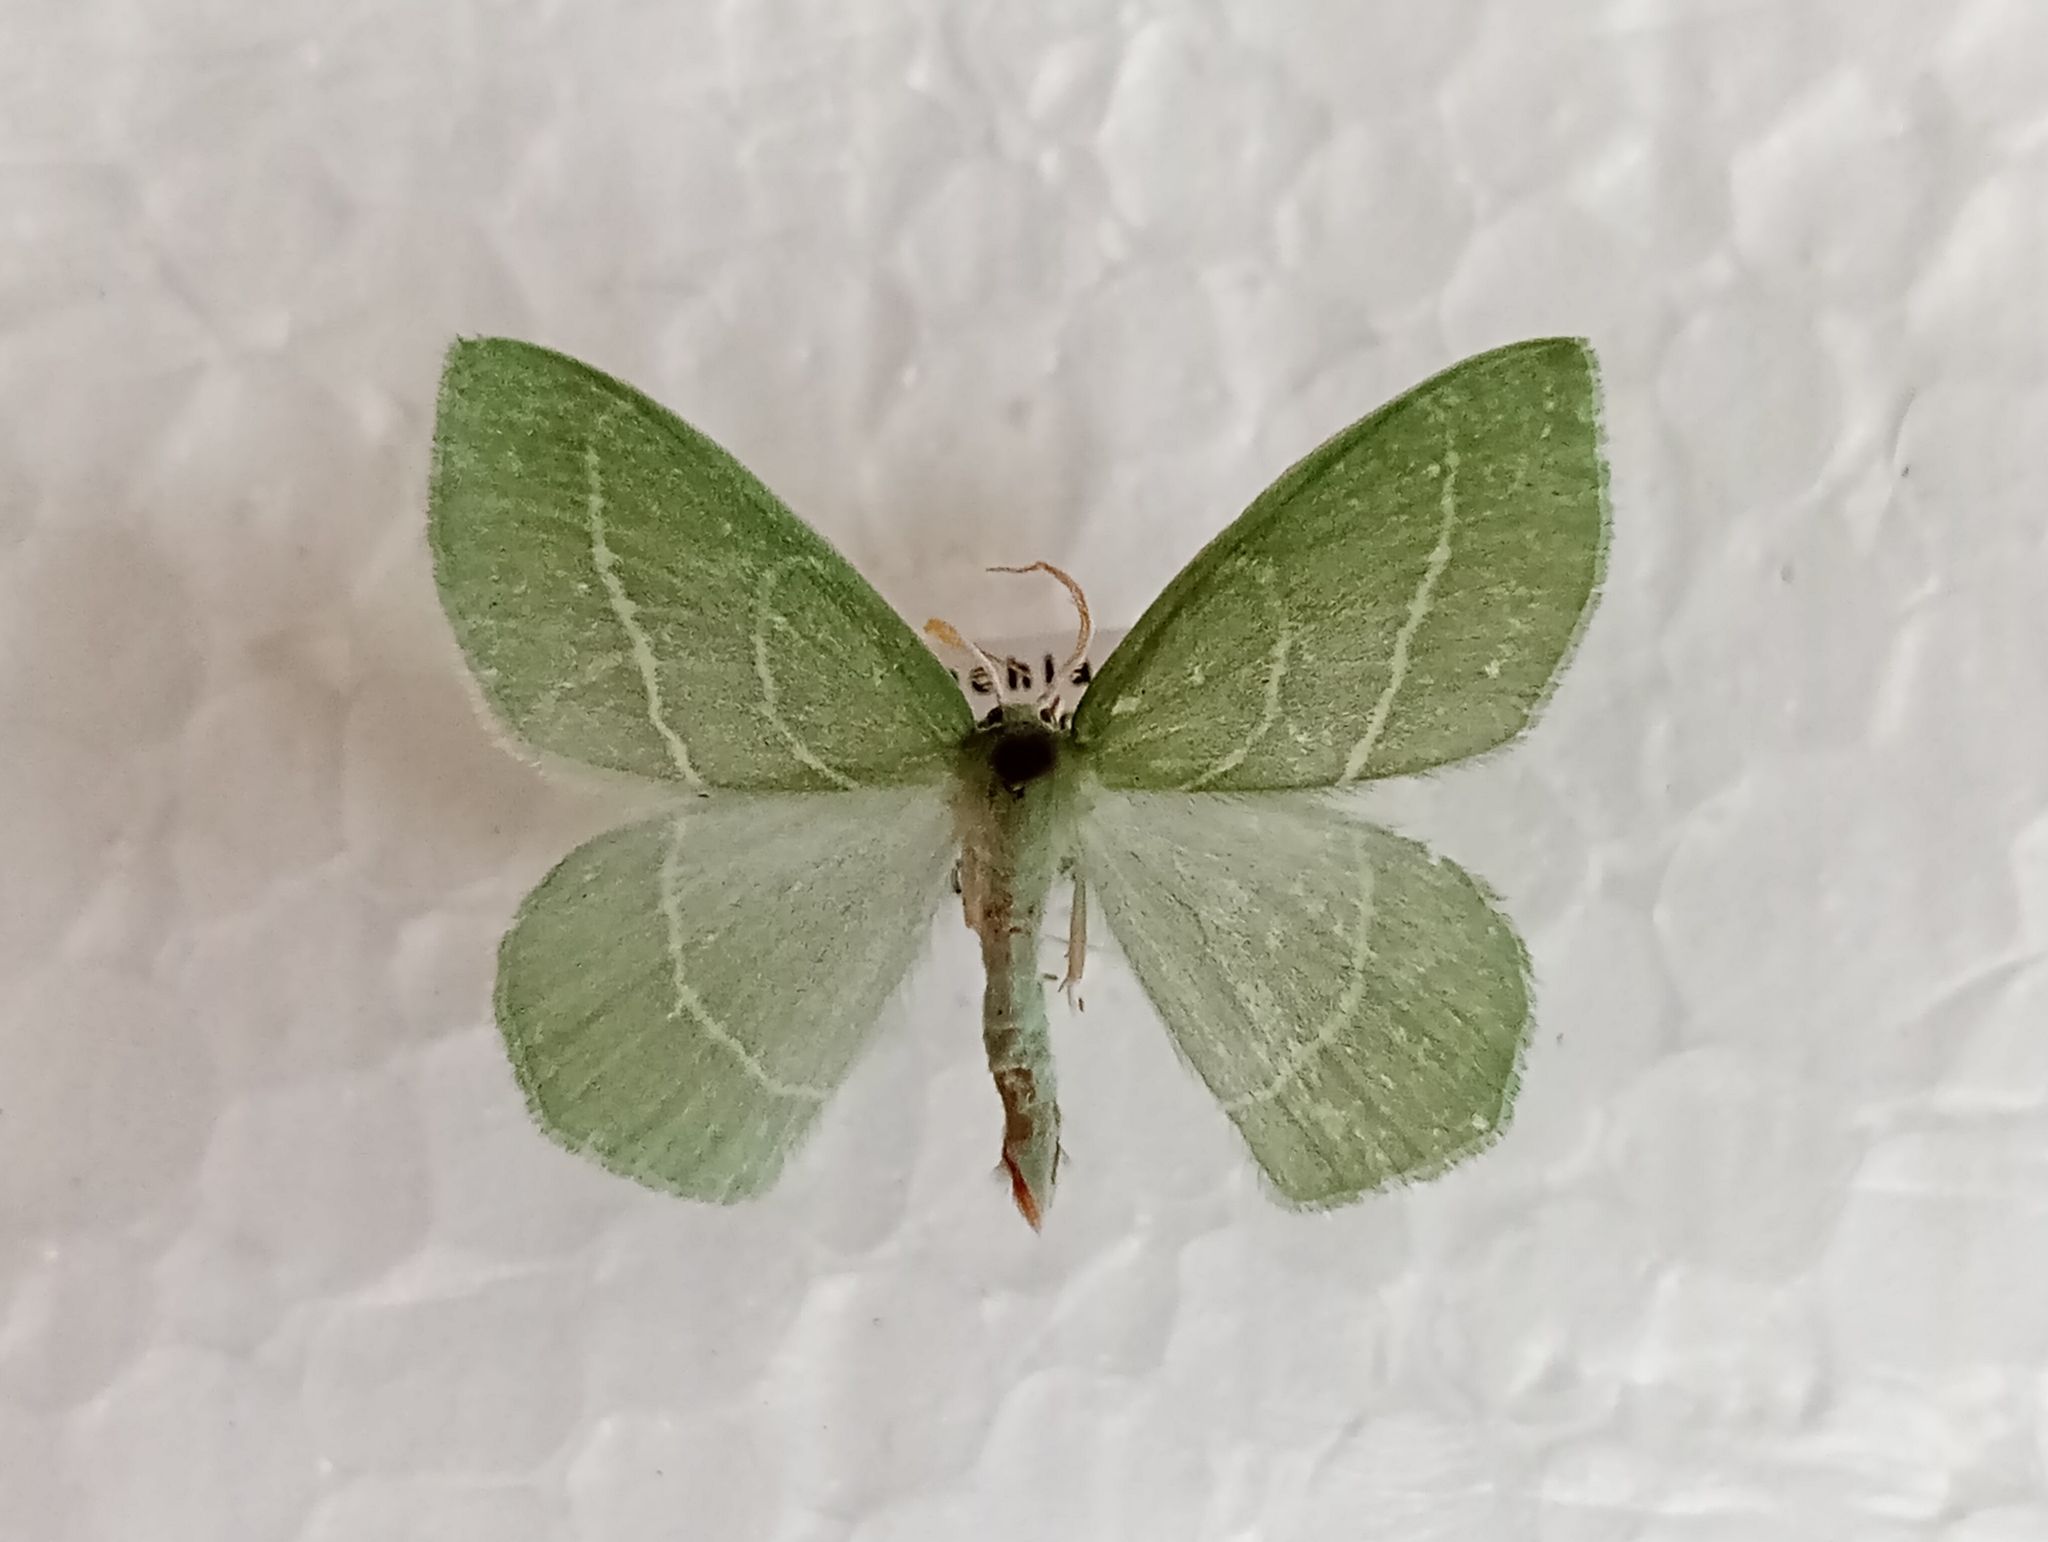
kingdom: Animalia
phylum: Arthropoda
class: Insecta
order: Lepidoptera
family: Geometridae
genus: Hemistola
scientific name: Hemistola chrysoprasaria
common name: Small emerald
